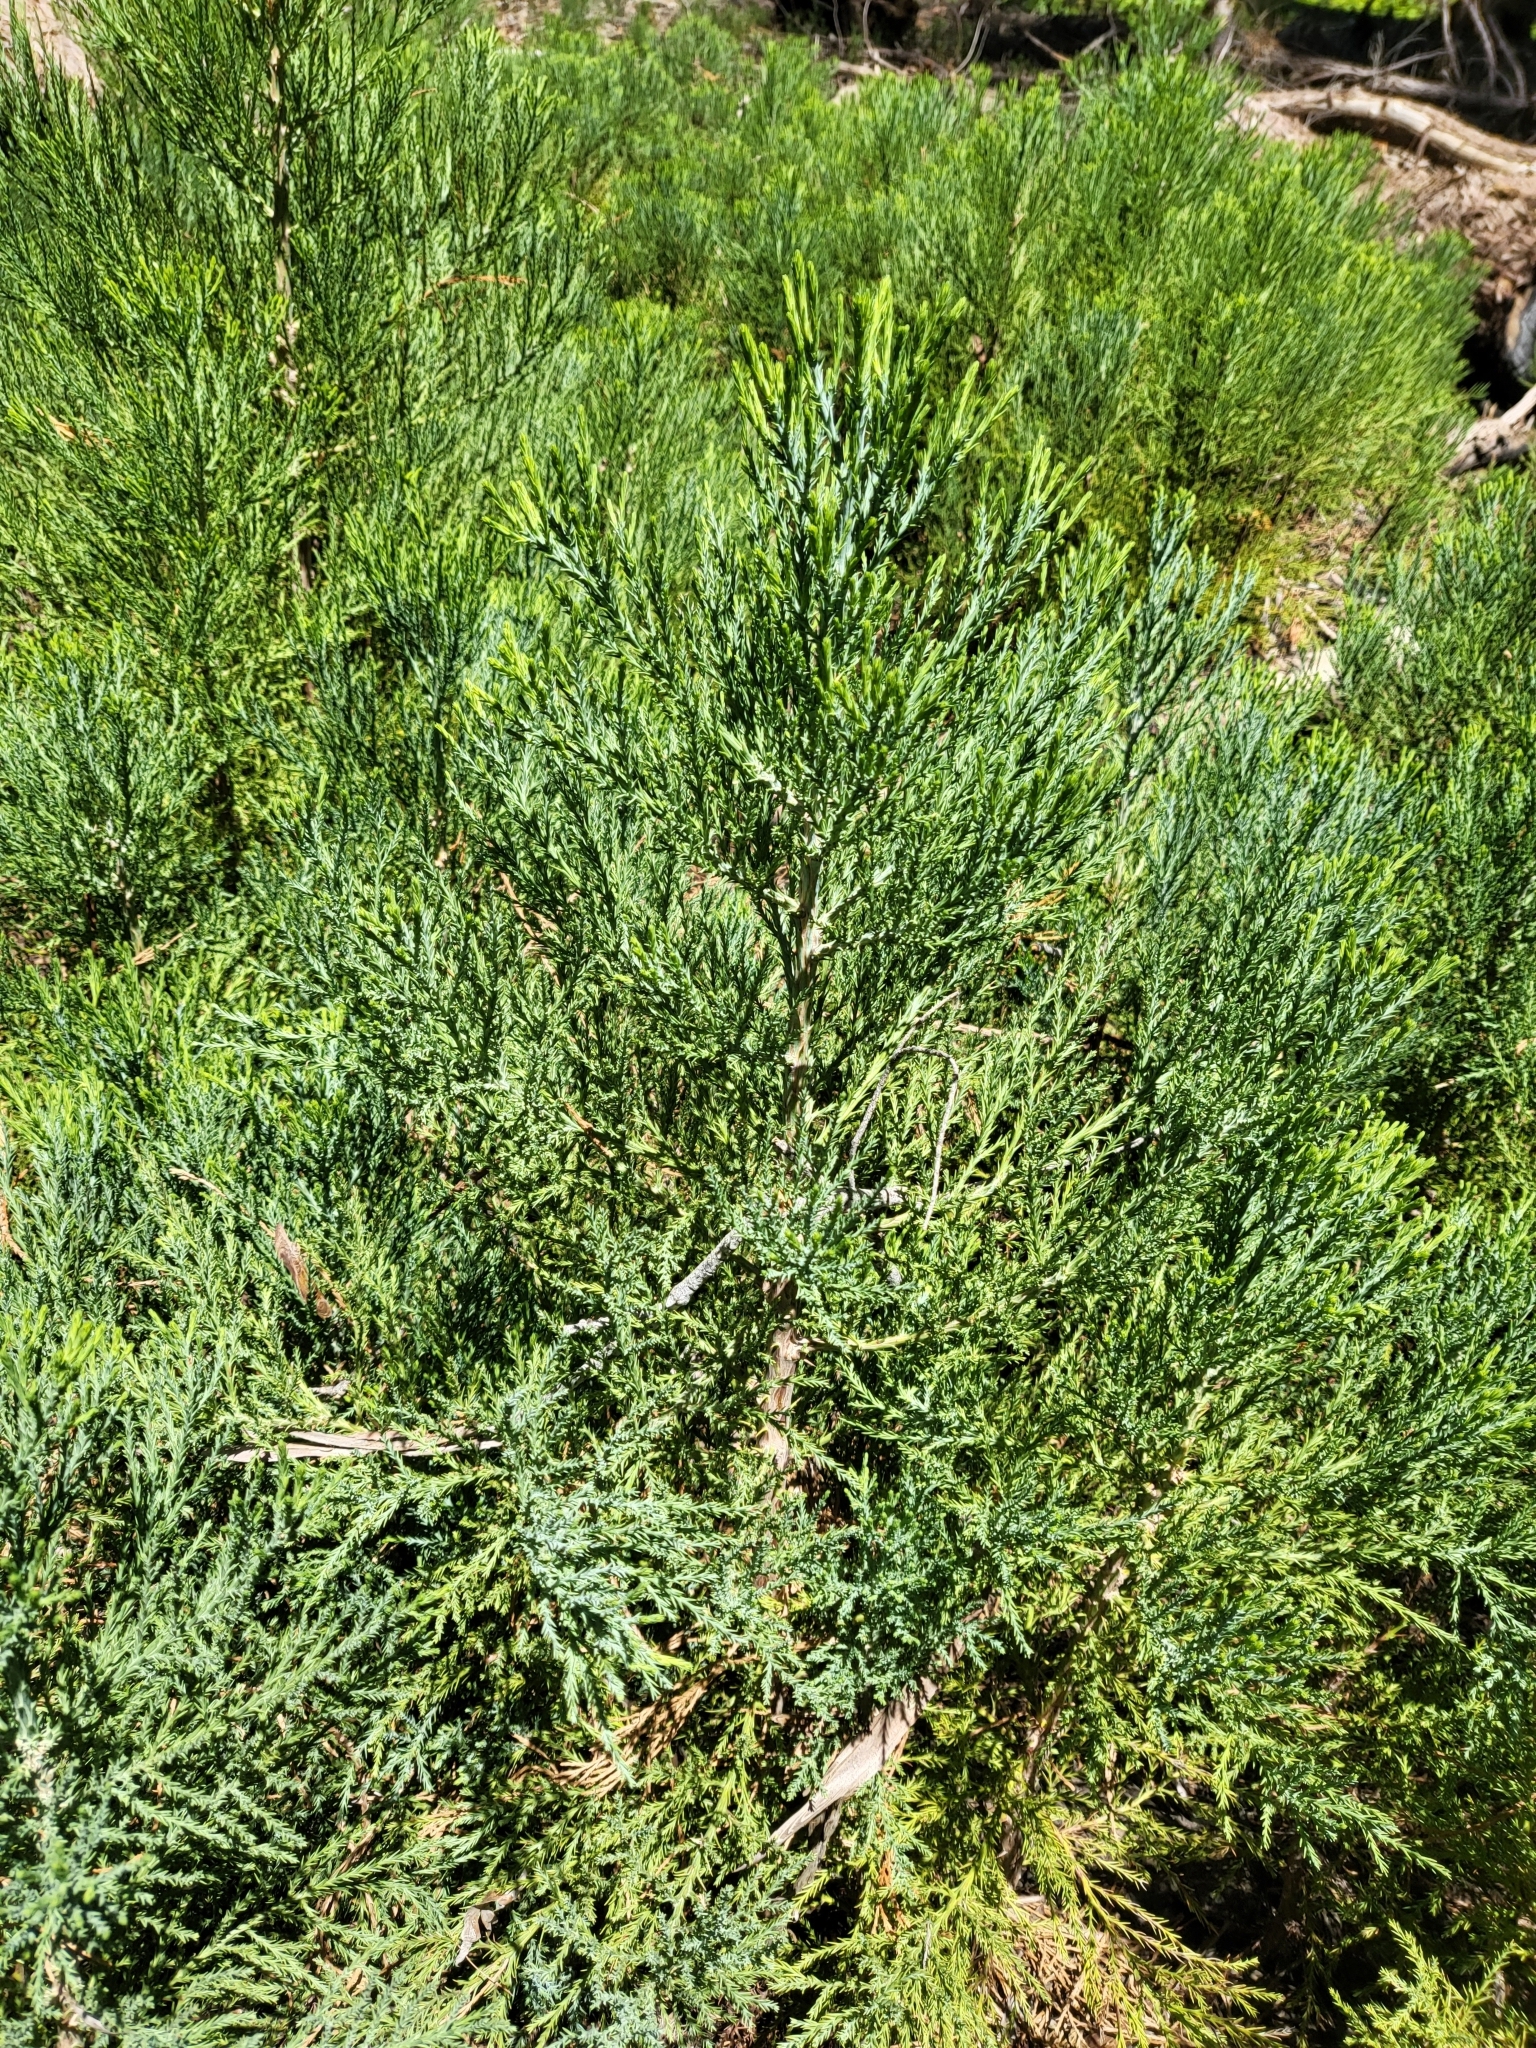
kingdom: Plantae
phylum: Tracheophyta
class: Pinopsida
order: Pinales
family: Cupressaceae
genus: Sequoiadendron
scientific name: Sequoiadendron giganteum
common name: Wellingtonia
